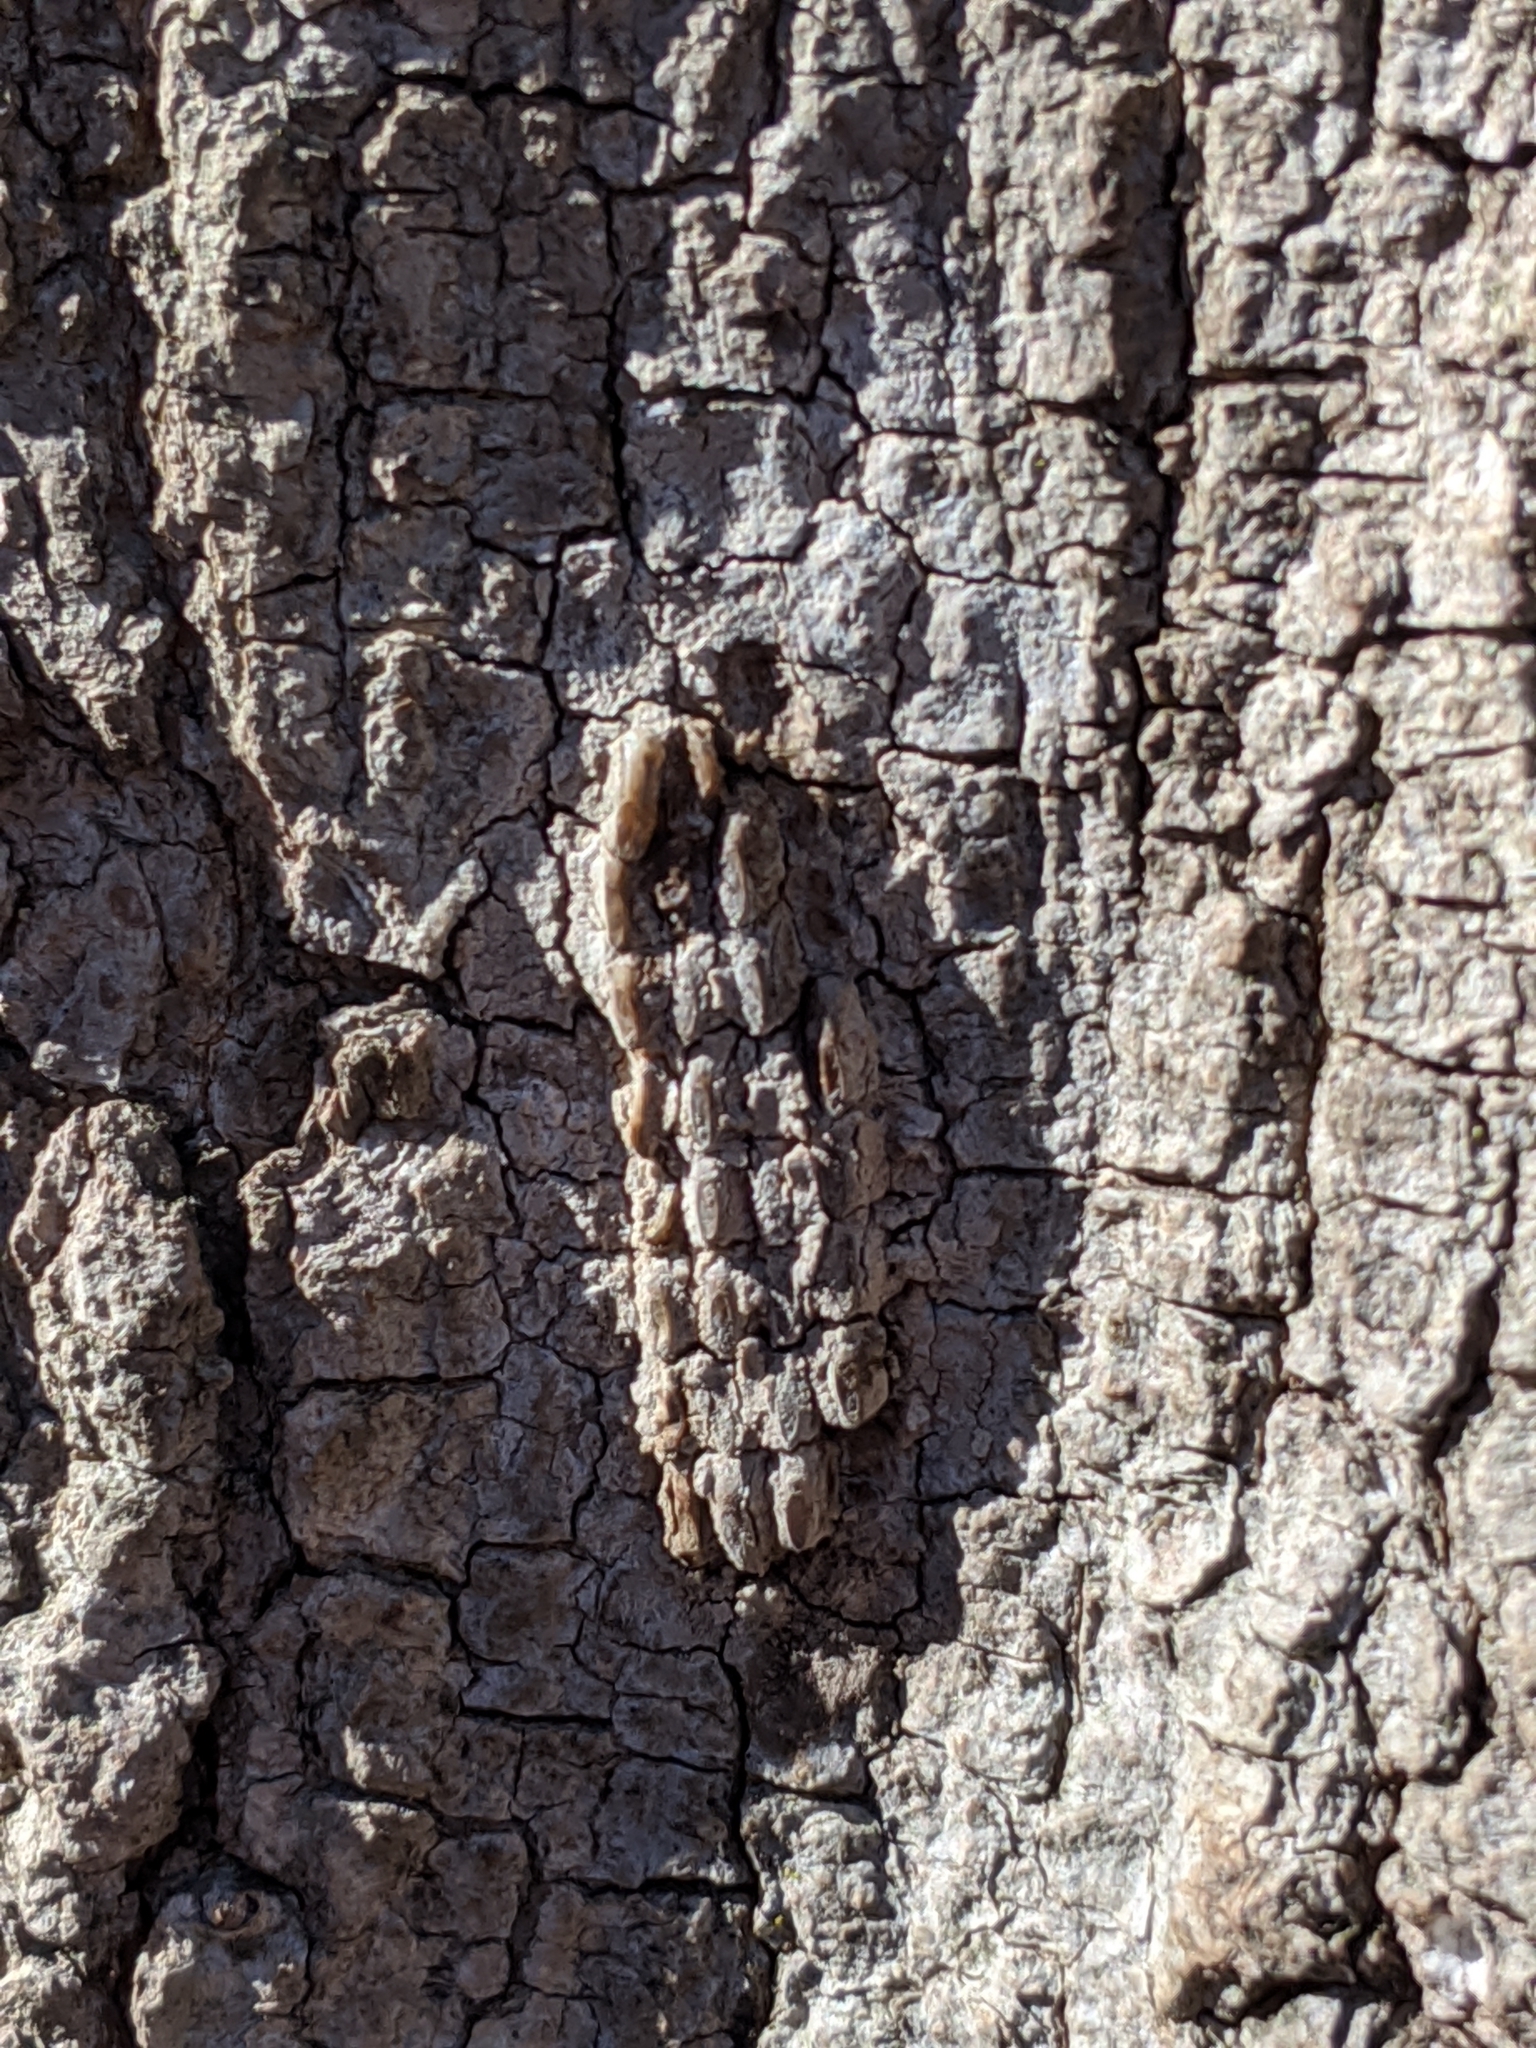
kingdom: Animalia
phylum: Arthropoda
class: Insecta
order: Hemiptera
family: Fulgoridae
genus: Lycorma
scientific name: Lycorma delicatula
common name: Spotted lanternfly
